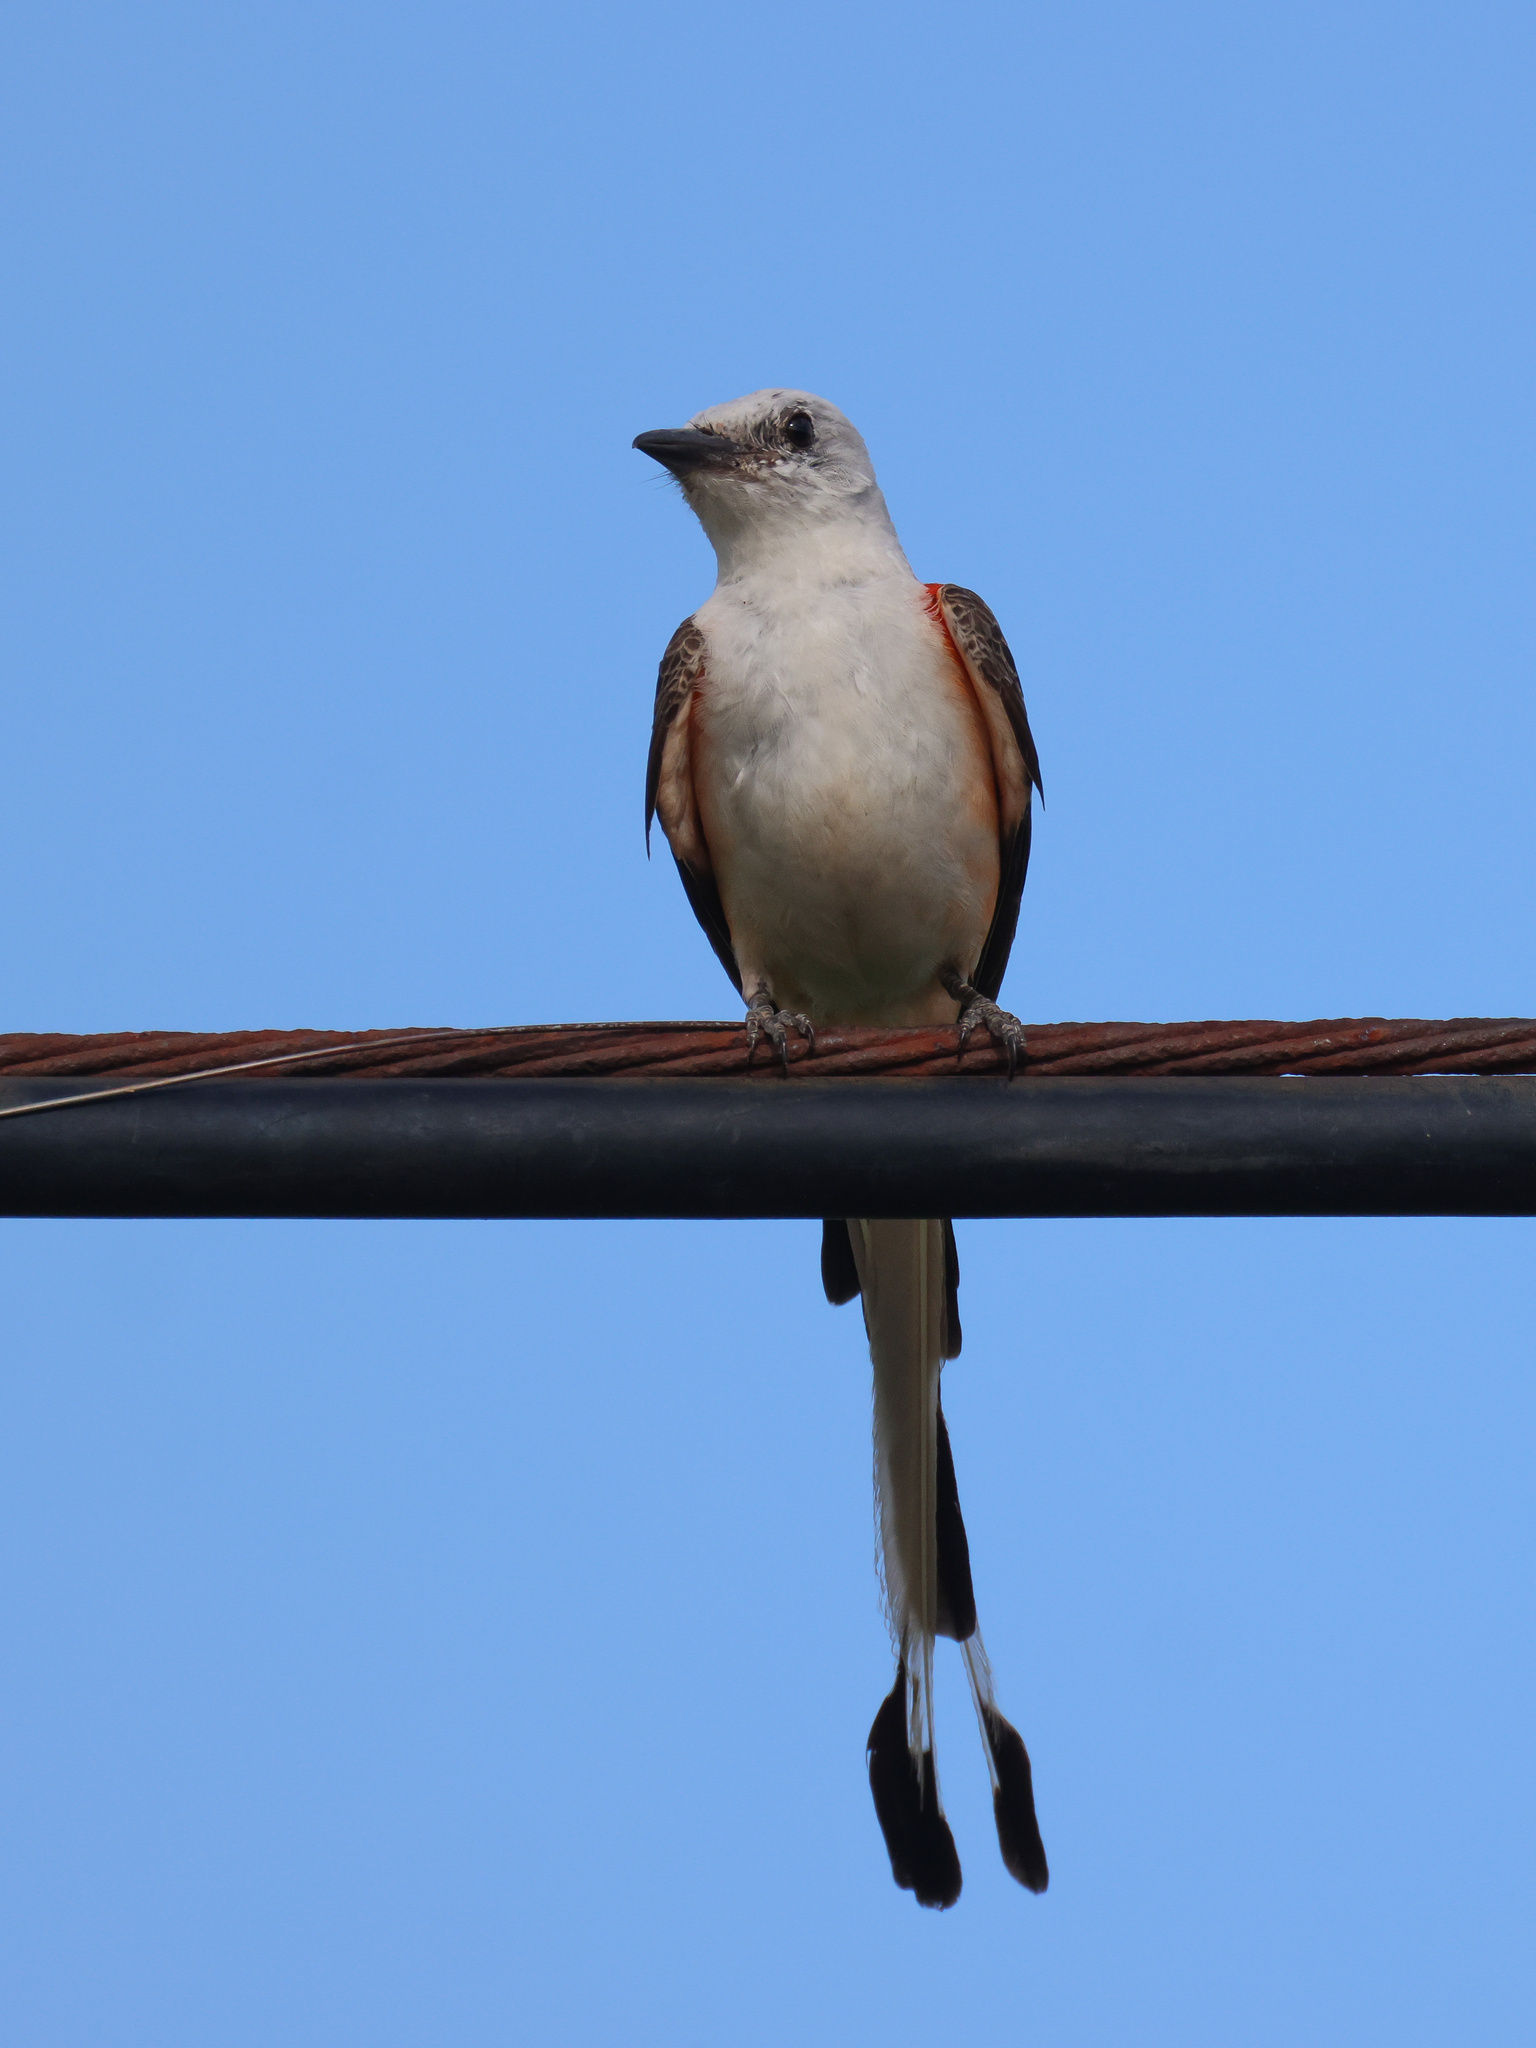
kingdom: Animalia
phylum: Chordata
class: Aves
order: Passeriformes
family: Tyrannidae
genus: Tyrannus
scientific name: Tyrannus forficatus
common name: Scissor-tailed flycatcher
